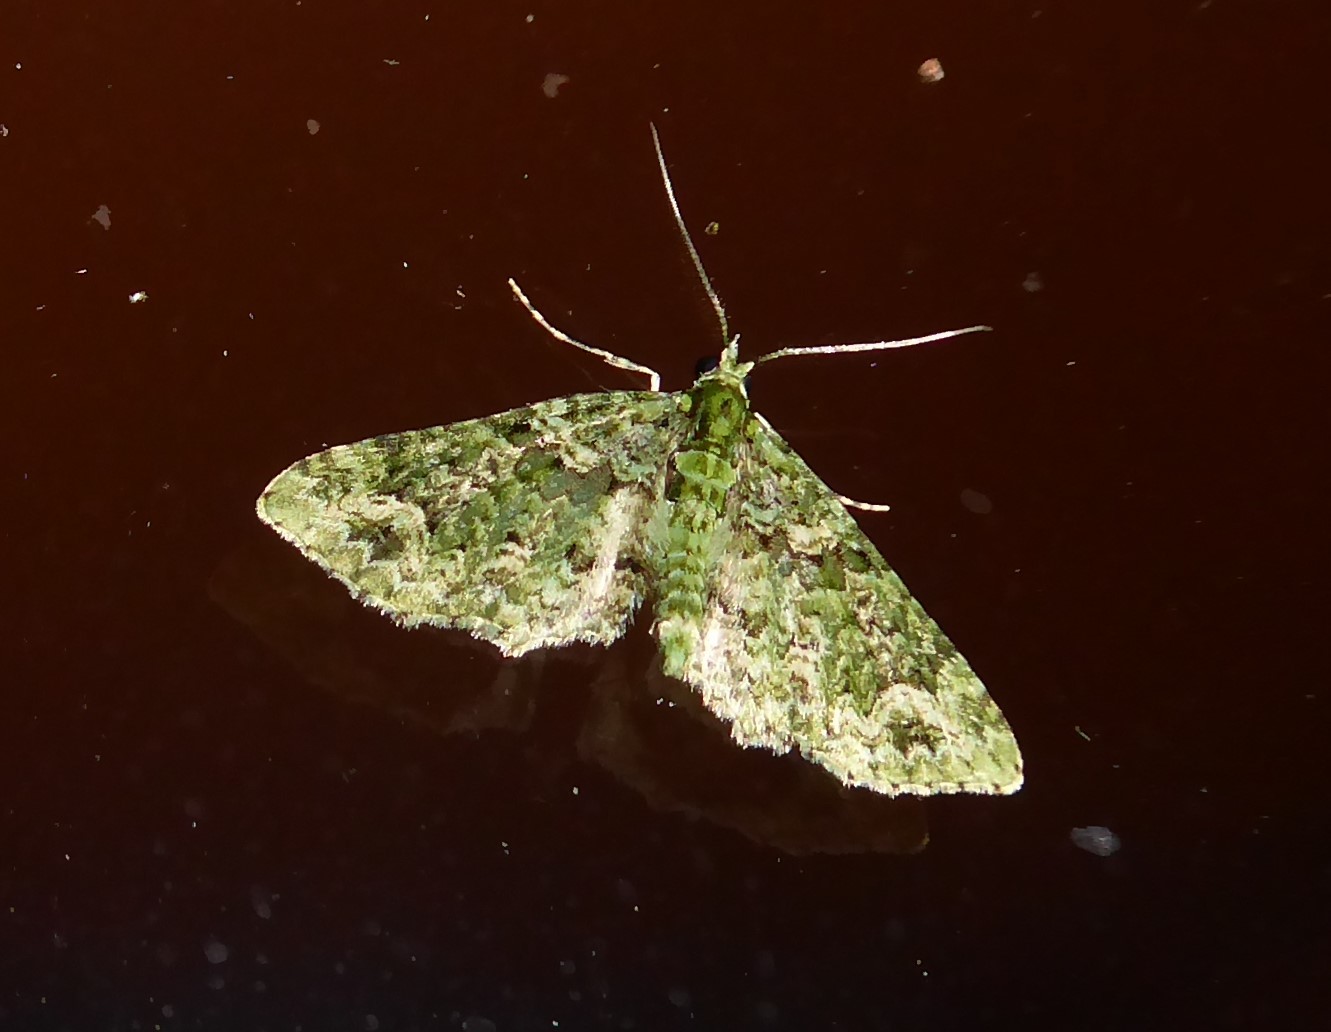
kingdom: Animalia
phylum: Arthropoda
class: Insecta
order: Lepidoptera
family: Geometridae
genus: Pasiphila
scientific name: Pasiphila muscosata
